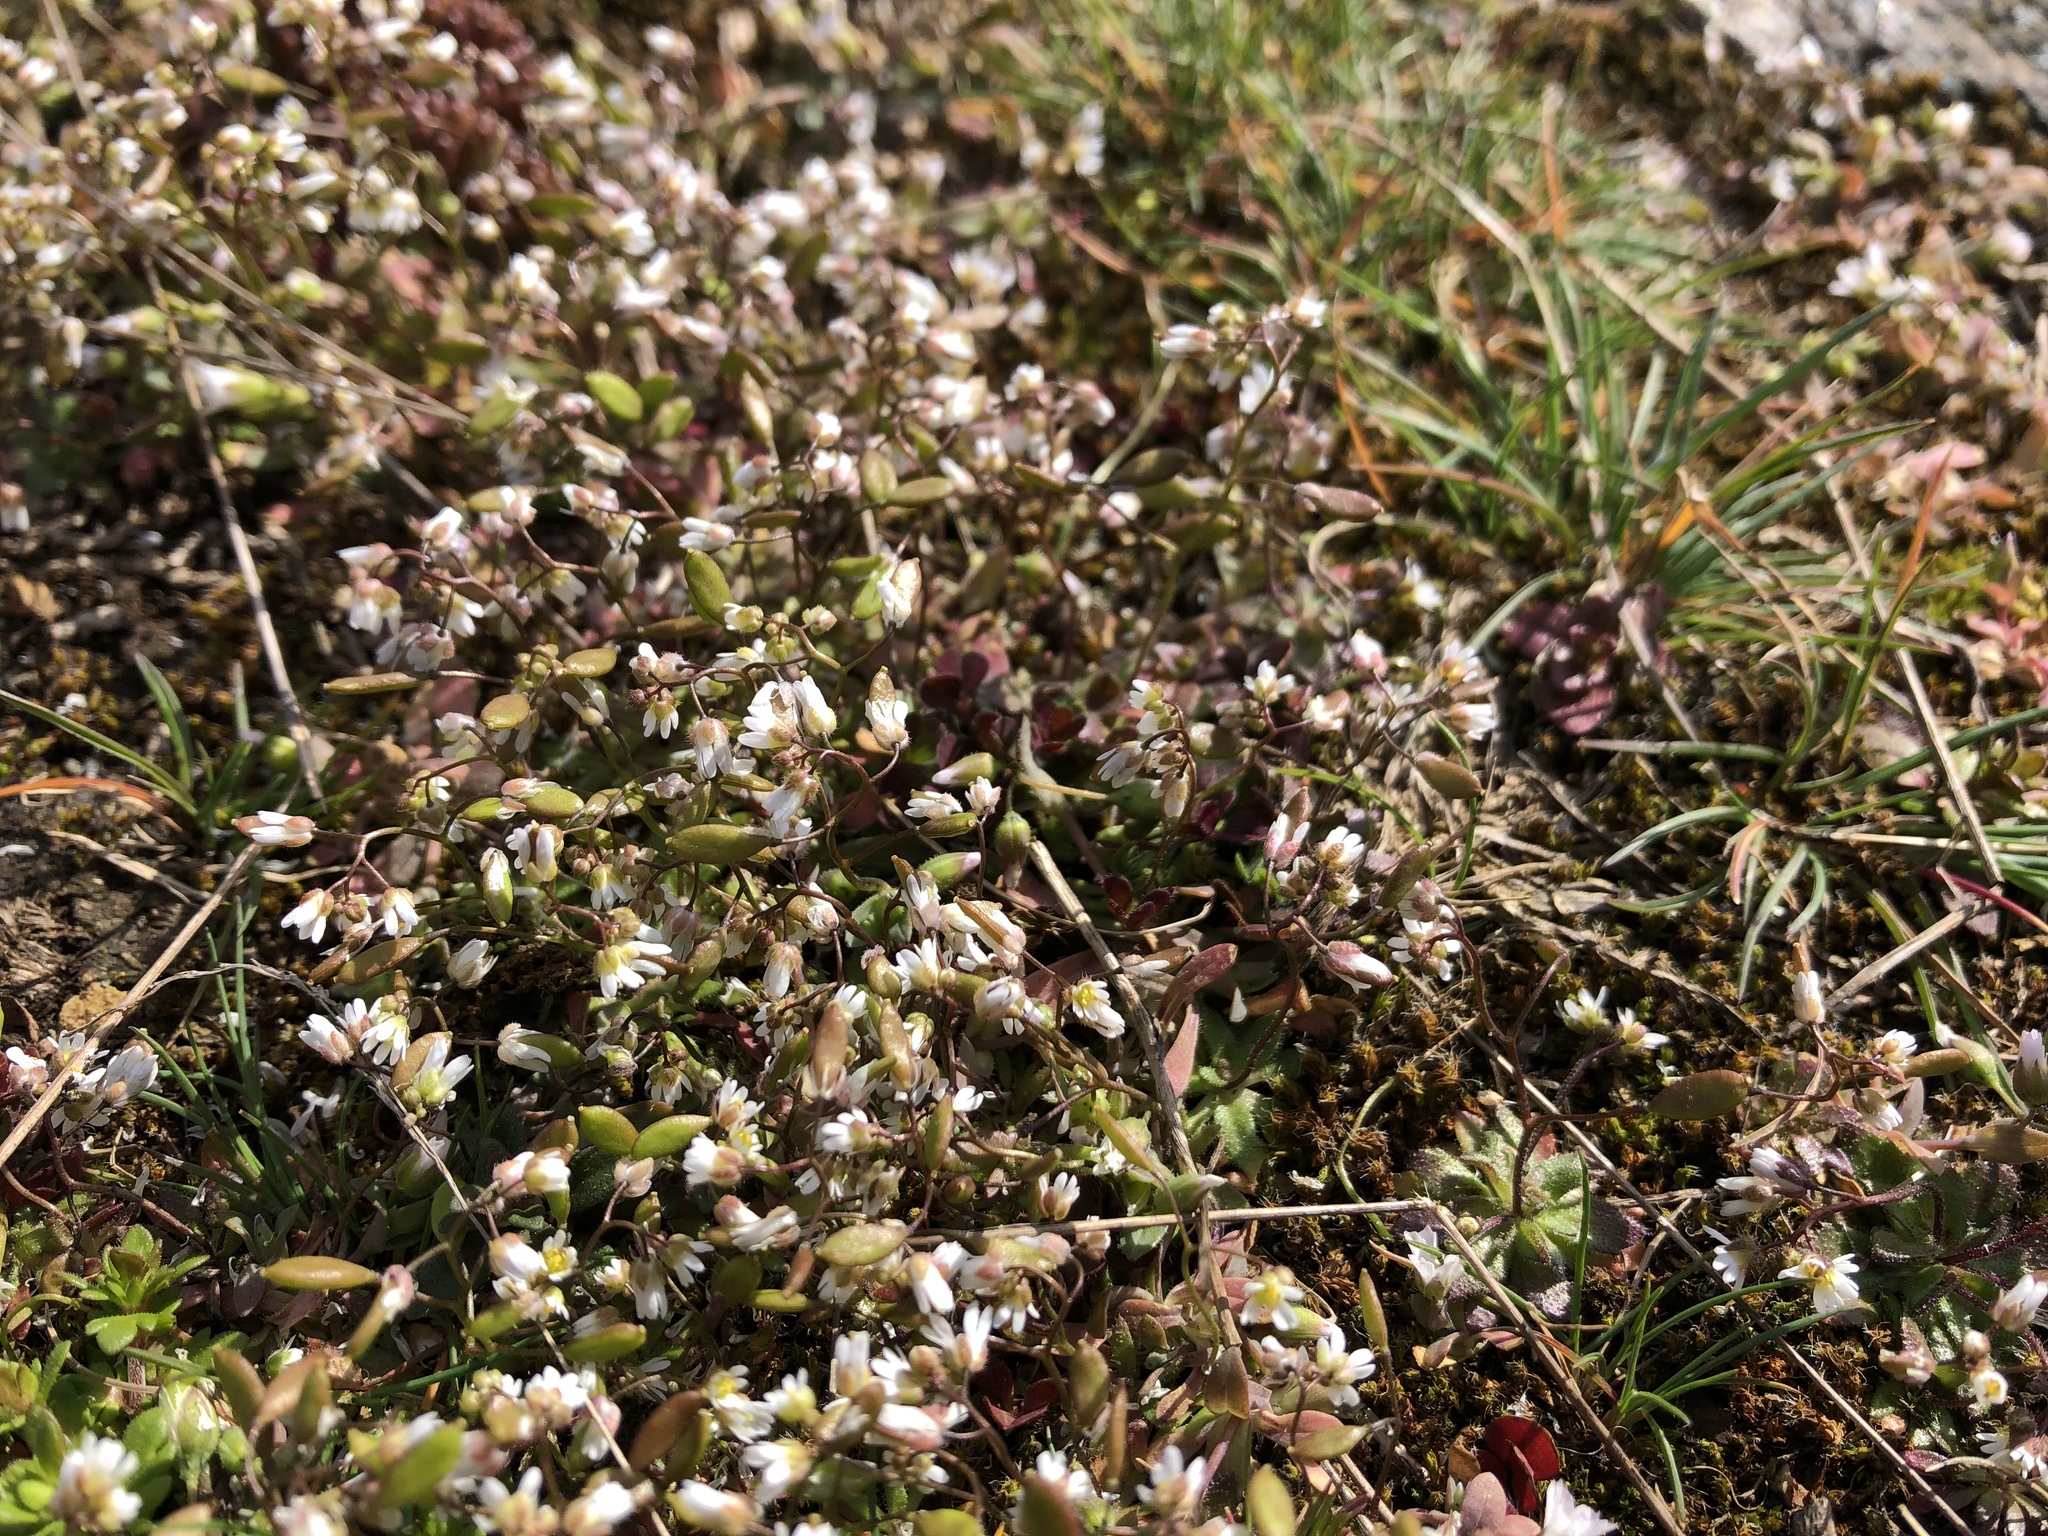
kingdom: Plantae
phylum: Tracheophyta
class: Magnoliopsida
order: Brassicales
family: Brassicaceae
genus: Draba
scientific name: Draba verna
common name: Spring draba
